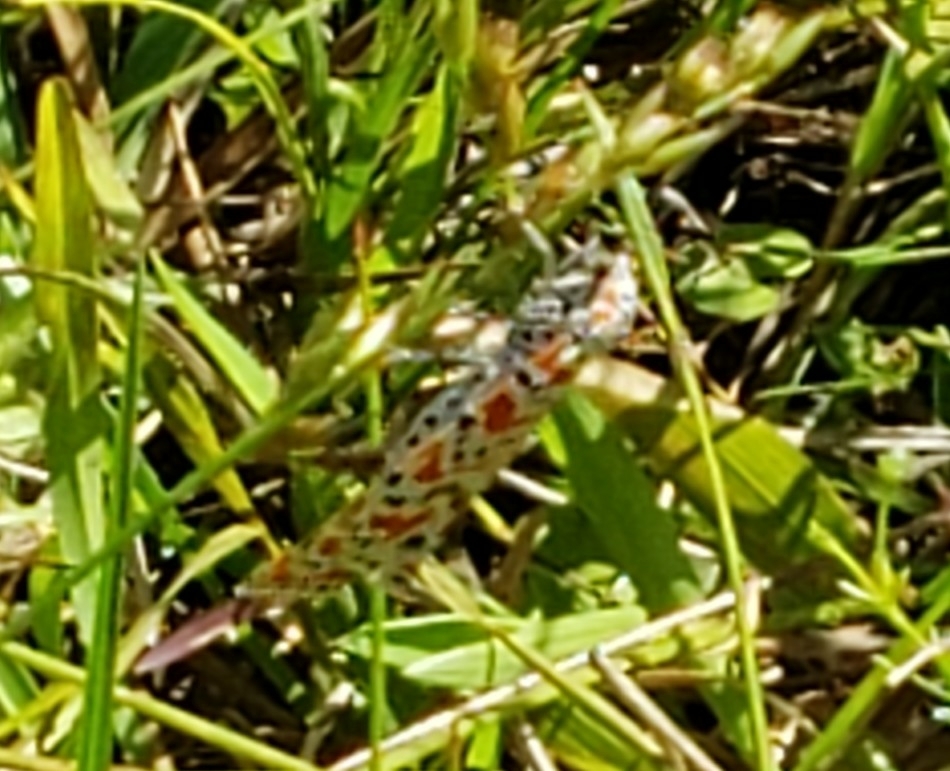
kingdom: Animalia
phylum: Arthropoda
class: Insecta
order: Lepidoptera
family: Erebidae
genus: Utetheisa
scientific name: Utetheisa ornatrix
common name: Beautiful utetheisa
